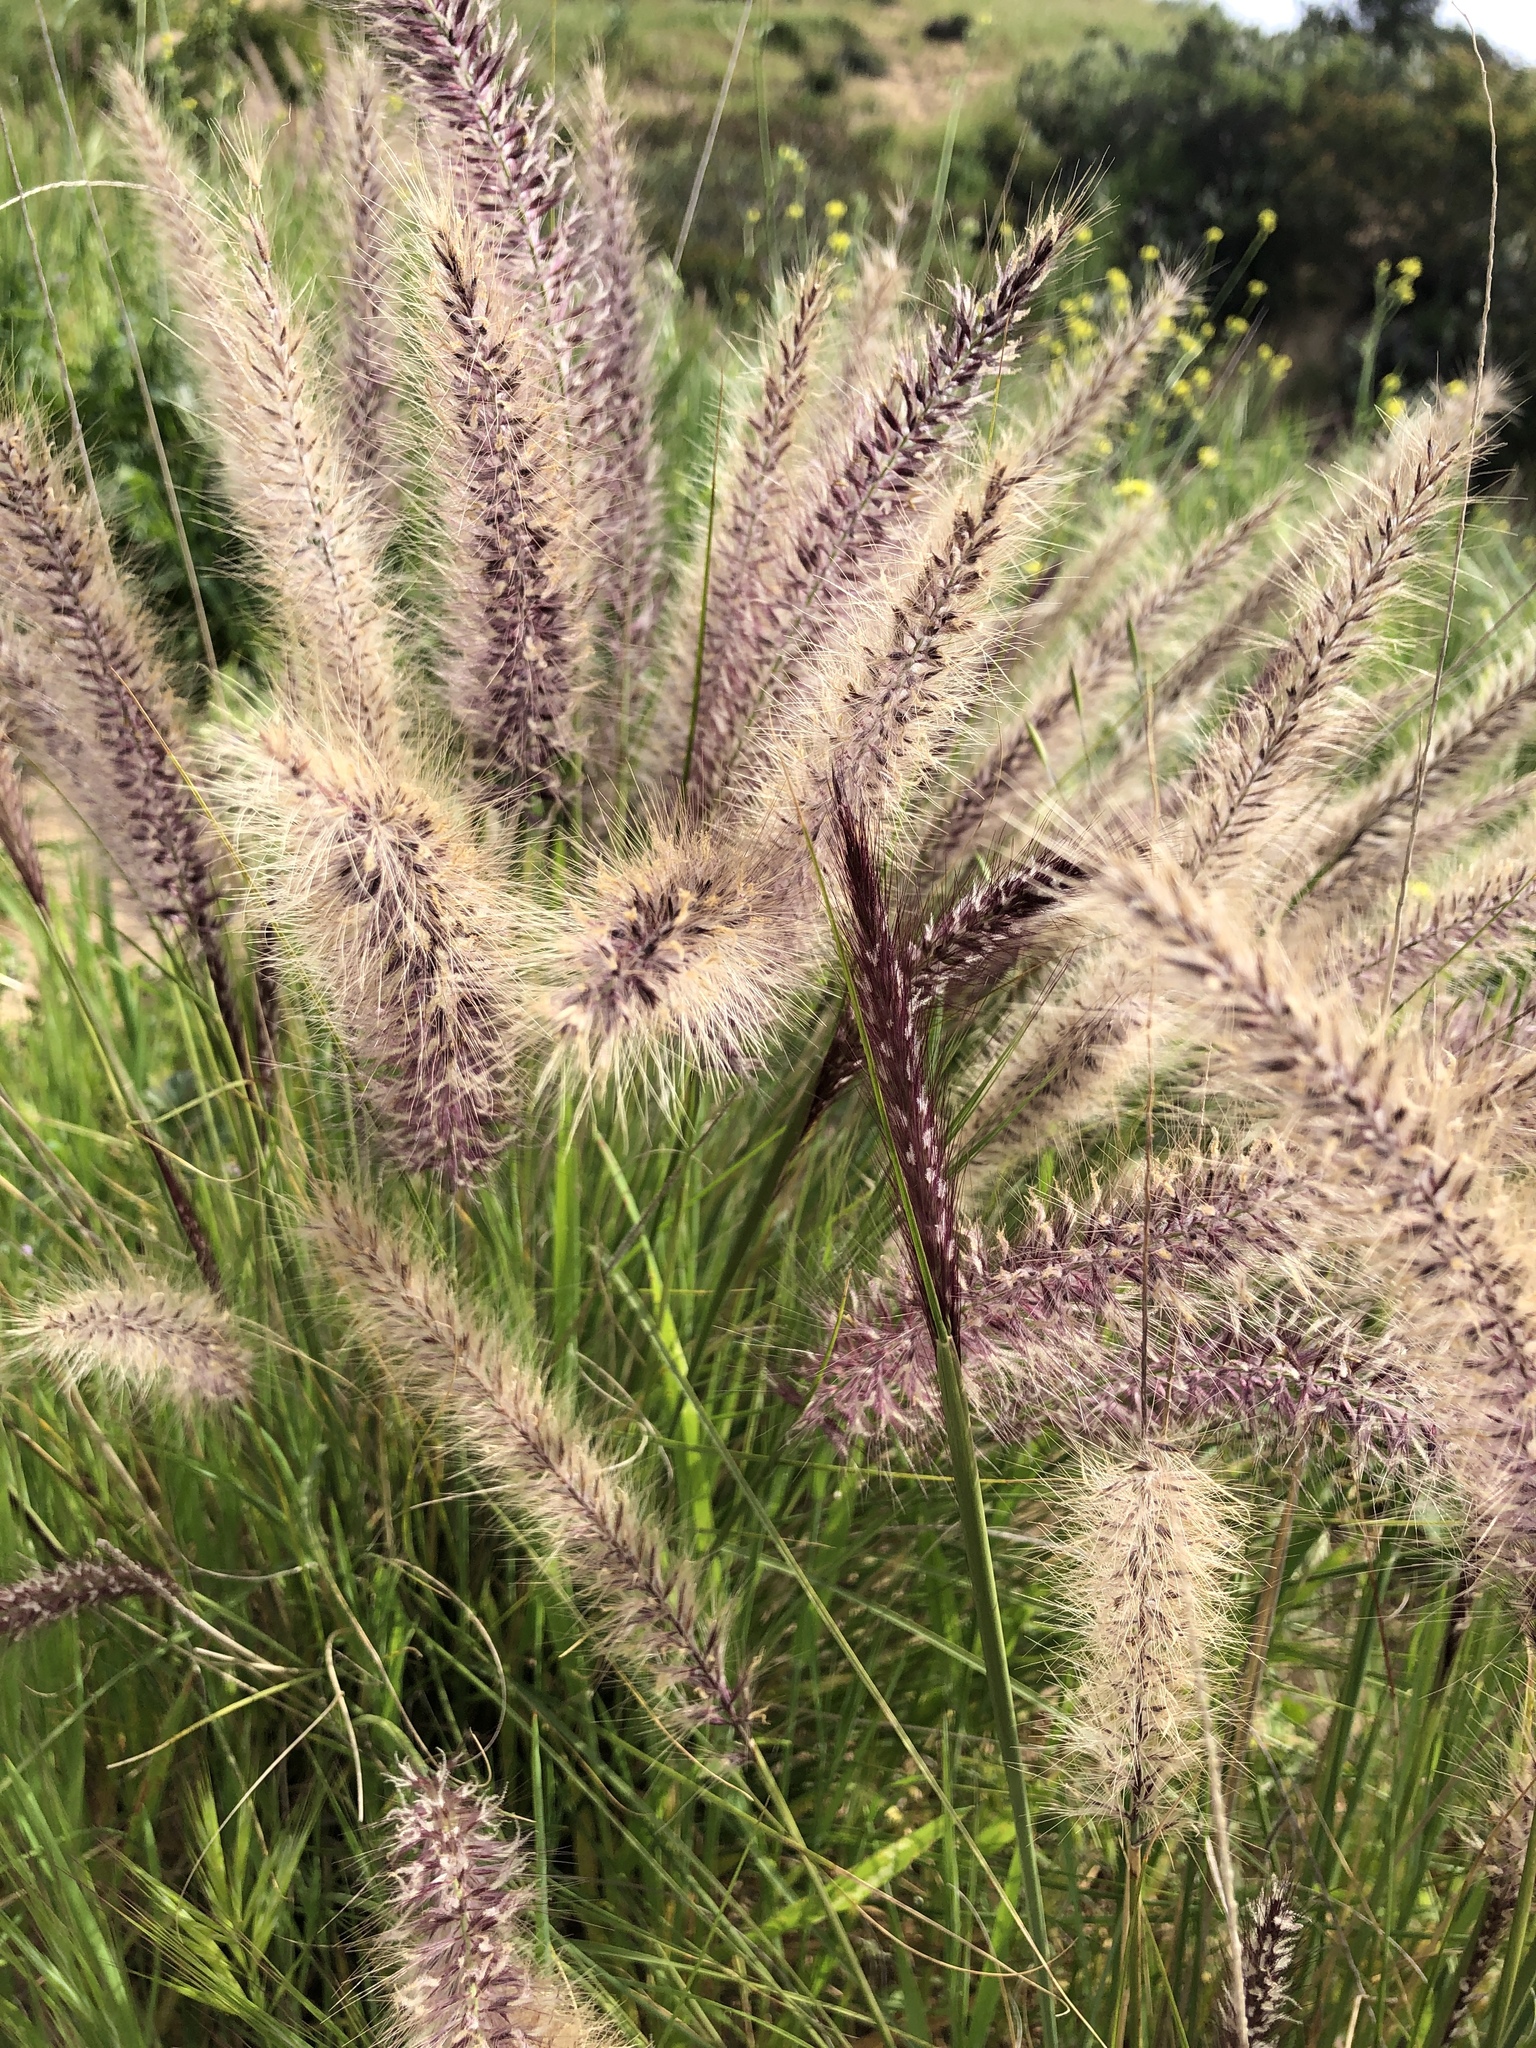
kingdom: Plantae
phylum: Tracheophyta
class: Liliopsida
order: Poales
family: Poaceae
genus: Cenchrus
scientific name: Cenchrus setaceus
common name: Crimson fountaingrass
